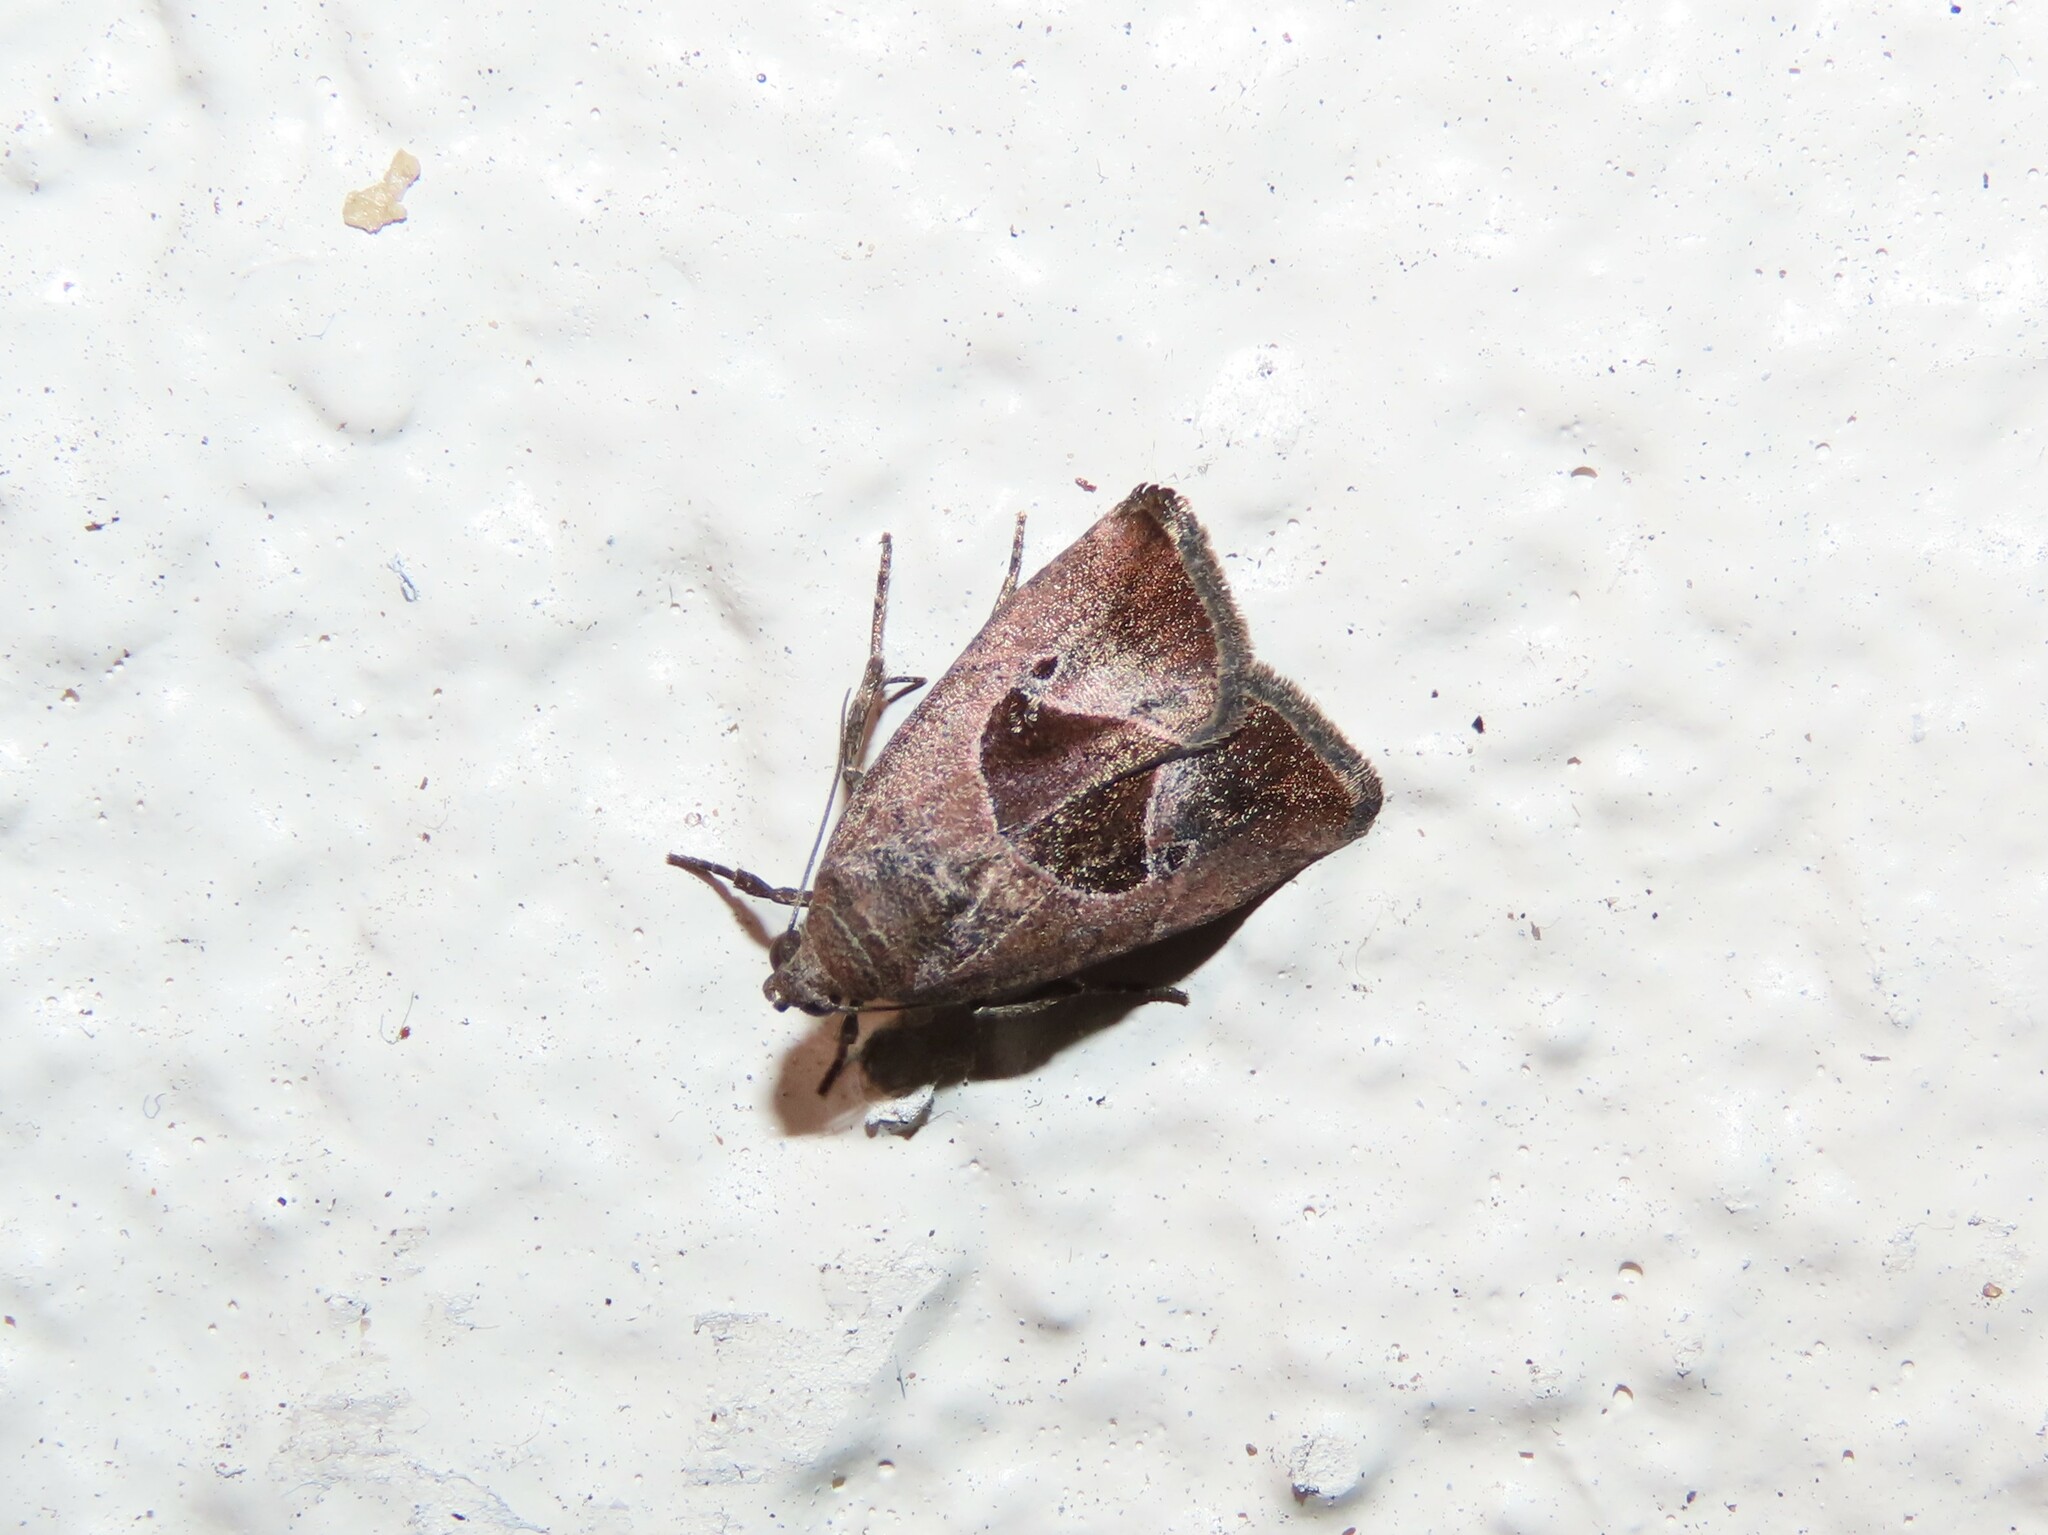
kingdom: Animalia
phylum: Arthropoda
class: Insecta
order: Lepidoptera
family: Noctuidae
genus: Elaphria
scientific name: Elaphria deltoides
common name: Cutworm moth
